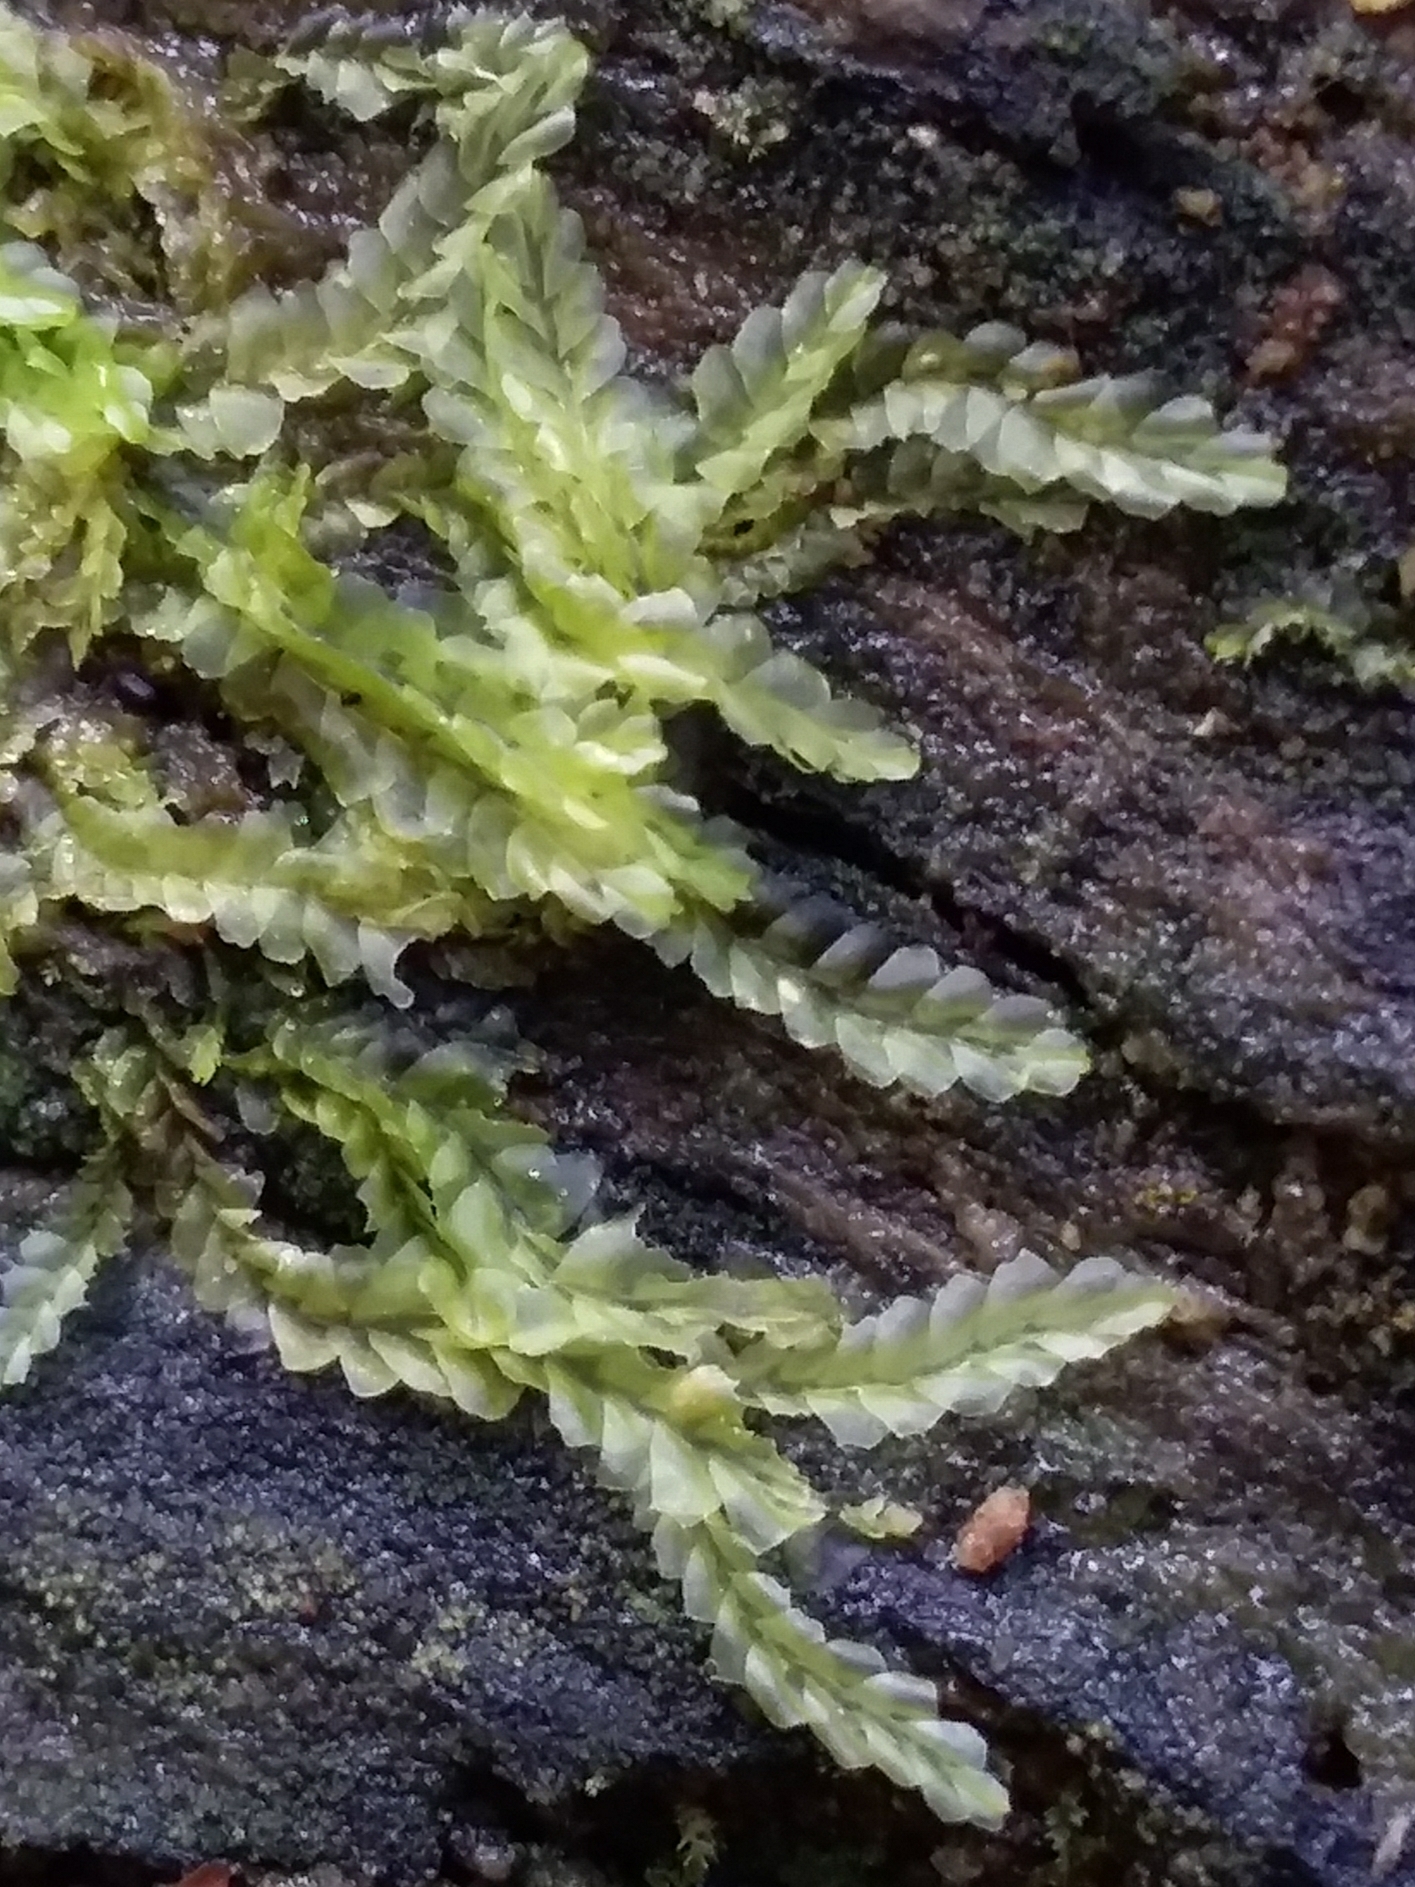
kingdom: Plantae
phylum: Marchantiophyta
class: Jungermanniopsida
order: Jungermanniales
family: Lophocoleaceae
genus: Lophocolea
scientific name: Lophocolea semiteres
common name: Southern crestwort
